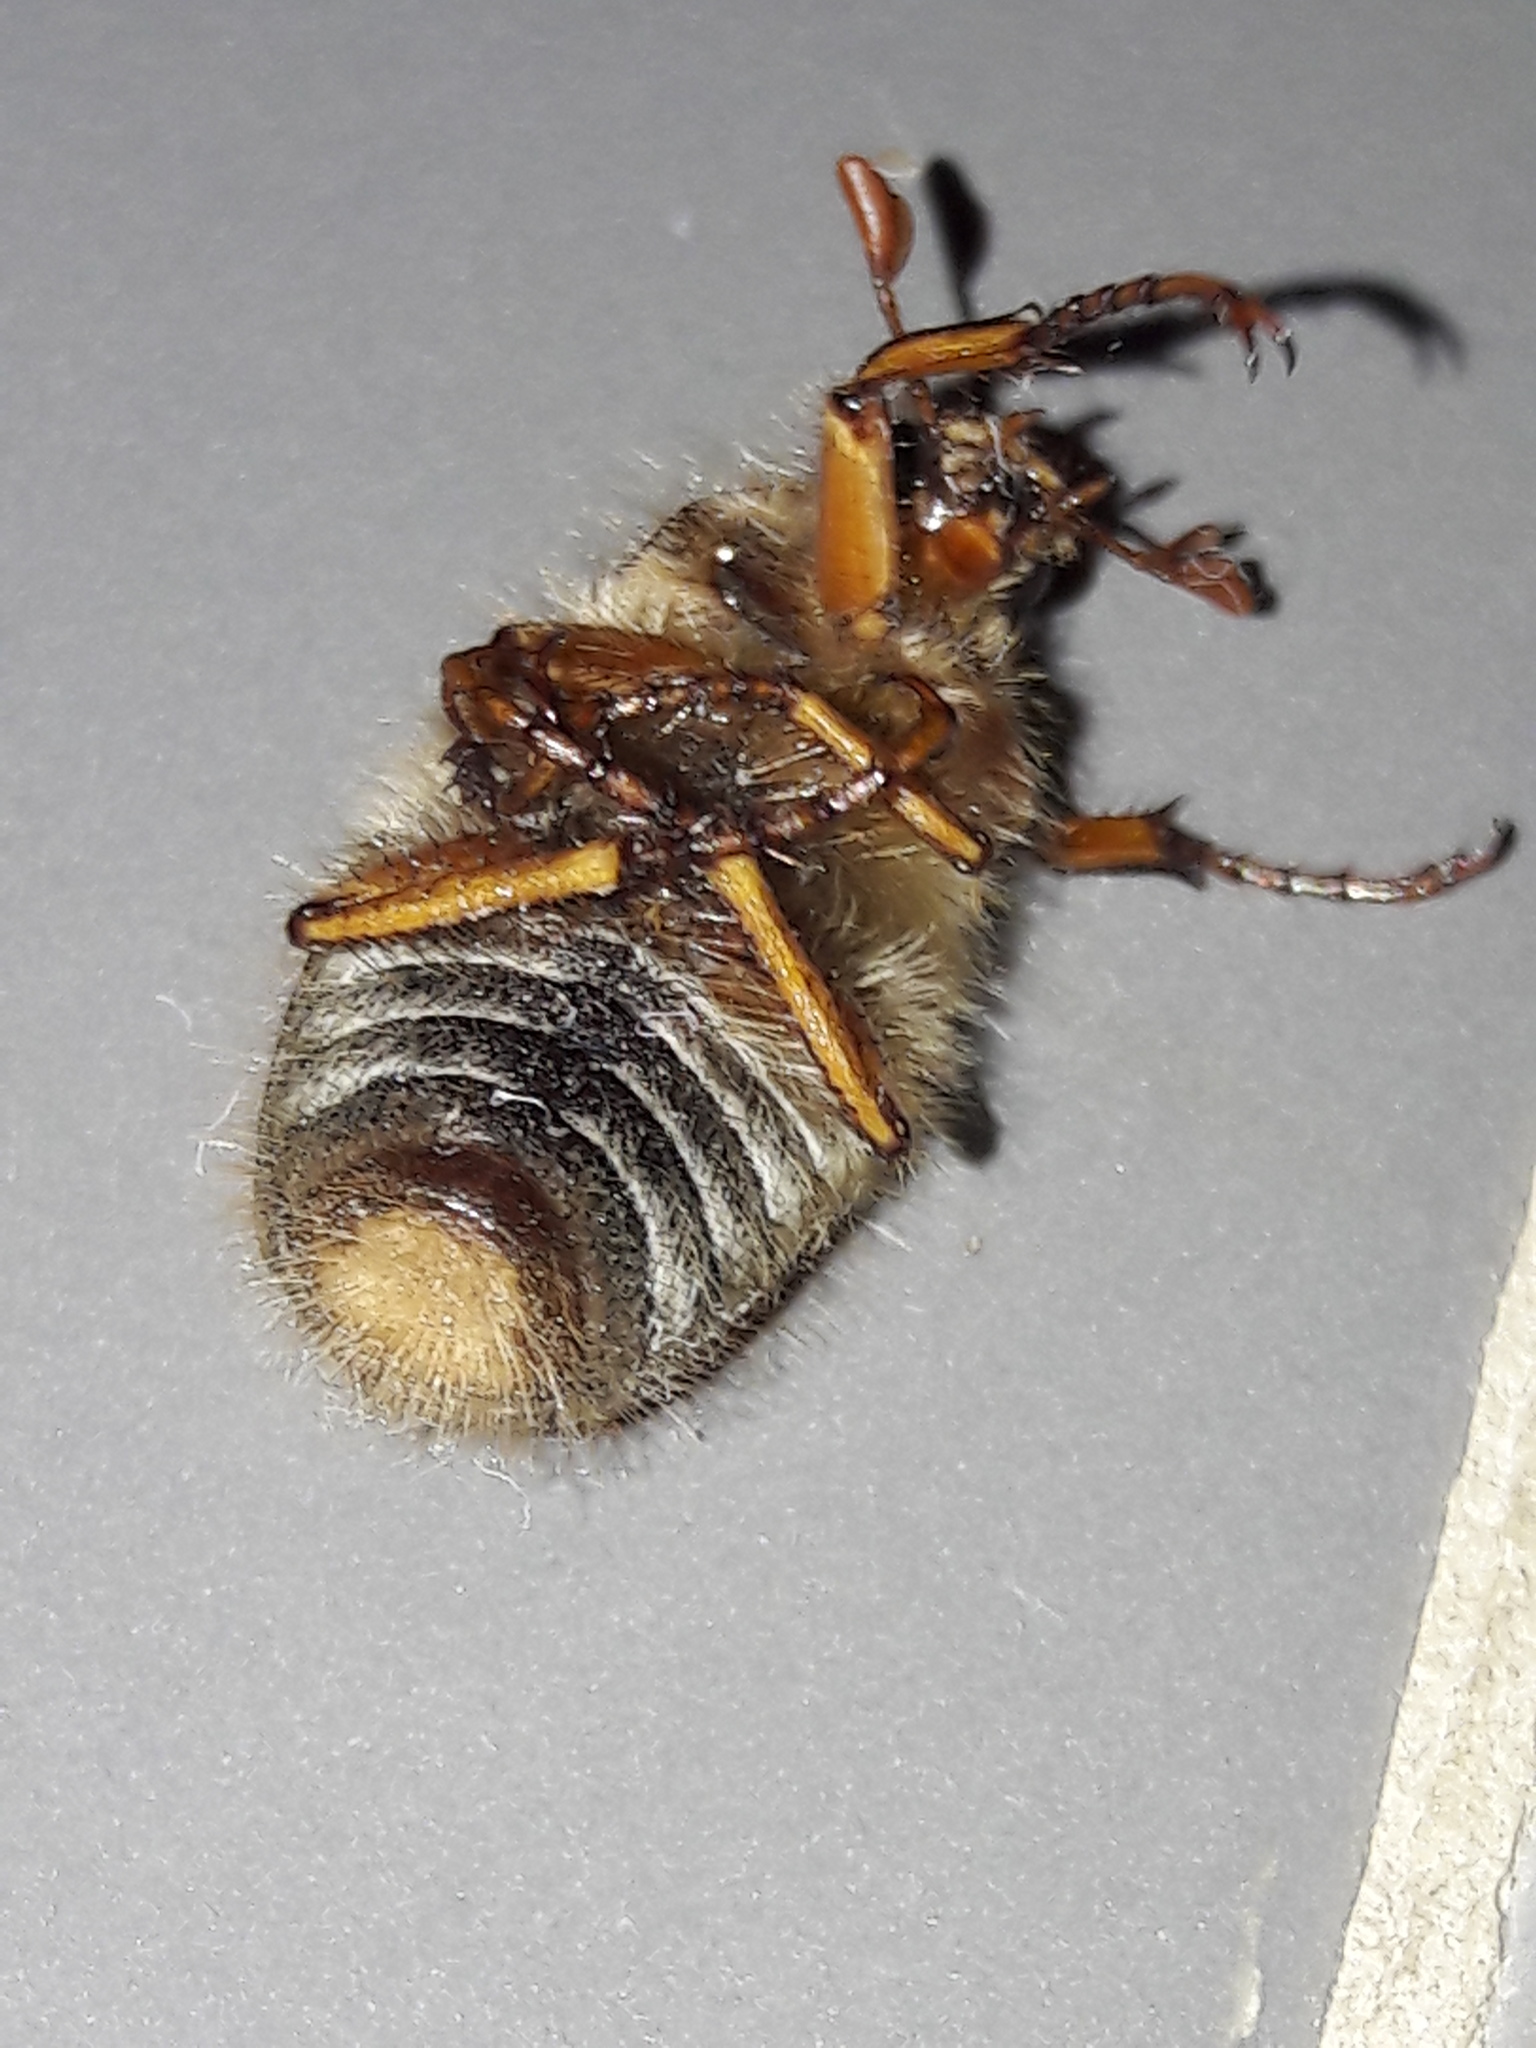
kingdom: Animalia
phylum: Arthropoda
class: Insecta
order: Coleoptera
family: Scarabaeidae
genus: Melolontha
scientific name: Melolontha melolontha
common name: Cockchafer maybeetle
